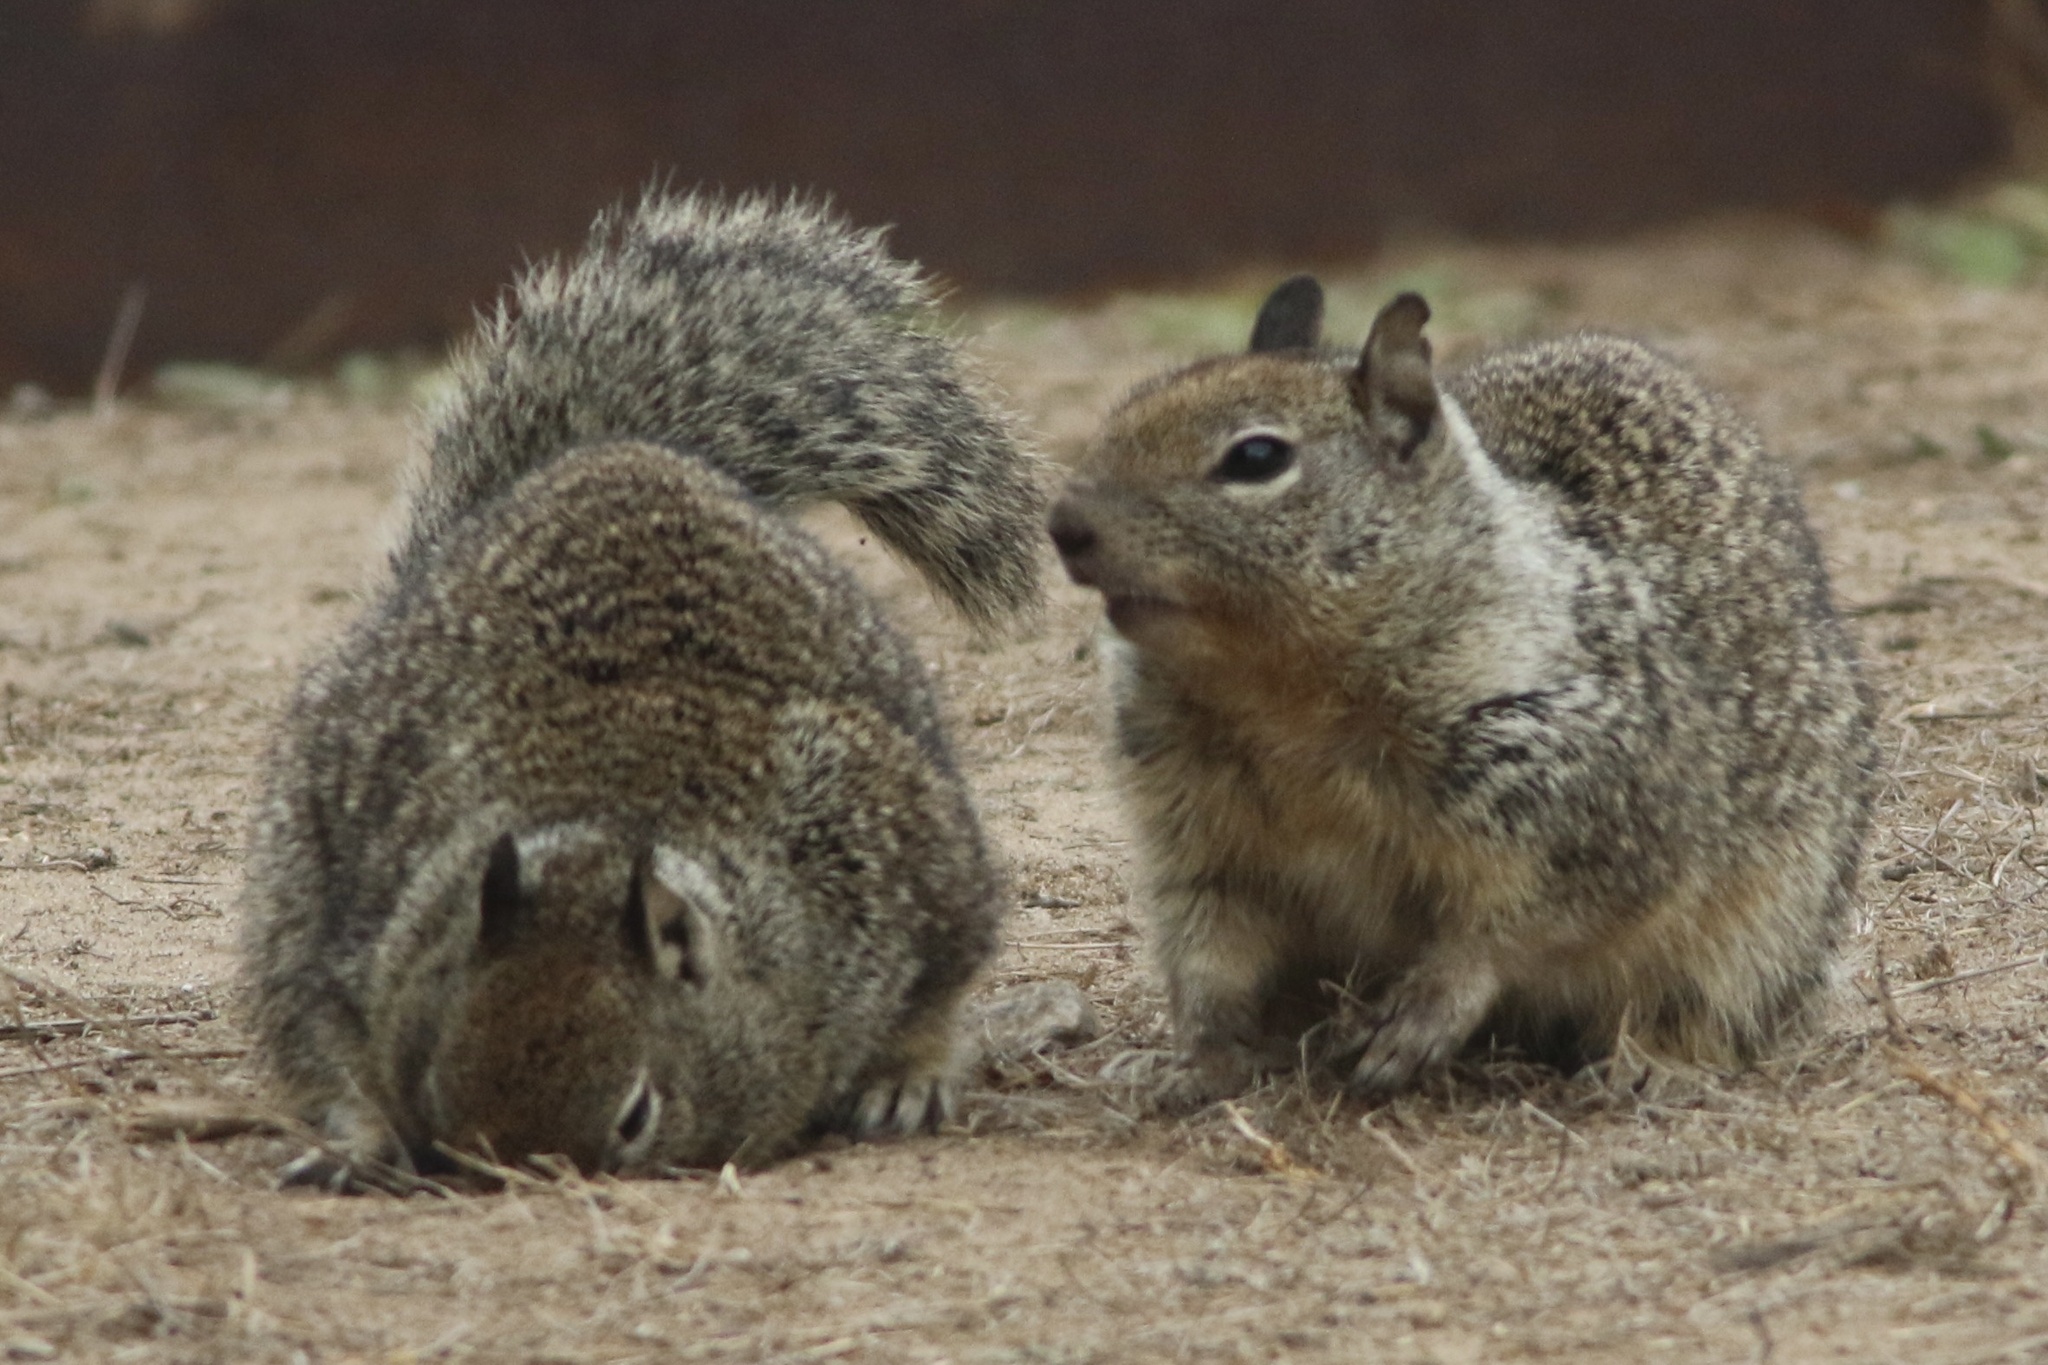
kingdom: Animalia
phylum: Chordata
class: Mammalia
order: Rodentia
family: Sciuridae
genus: Otospermophilus
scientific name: Otospermophilus beecheyi
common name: California ground squirrel
